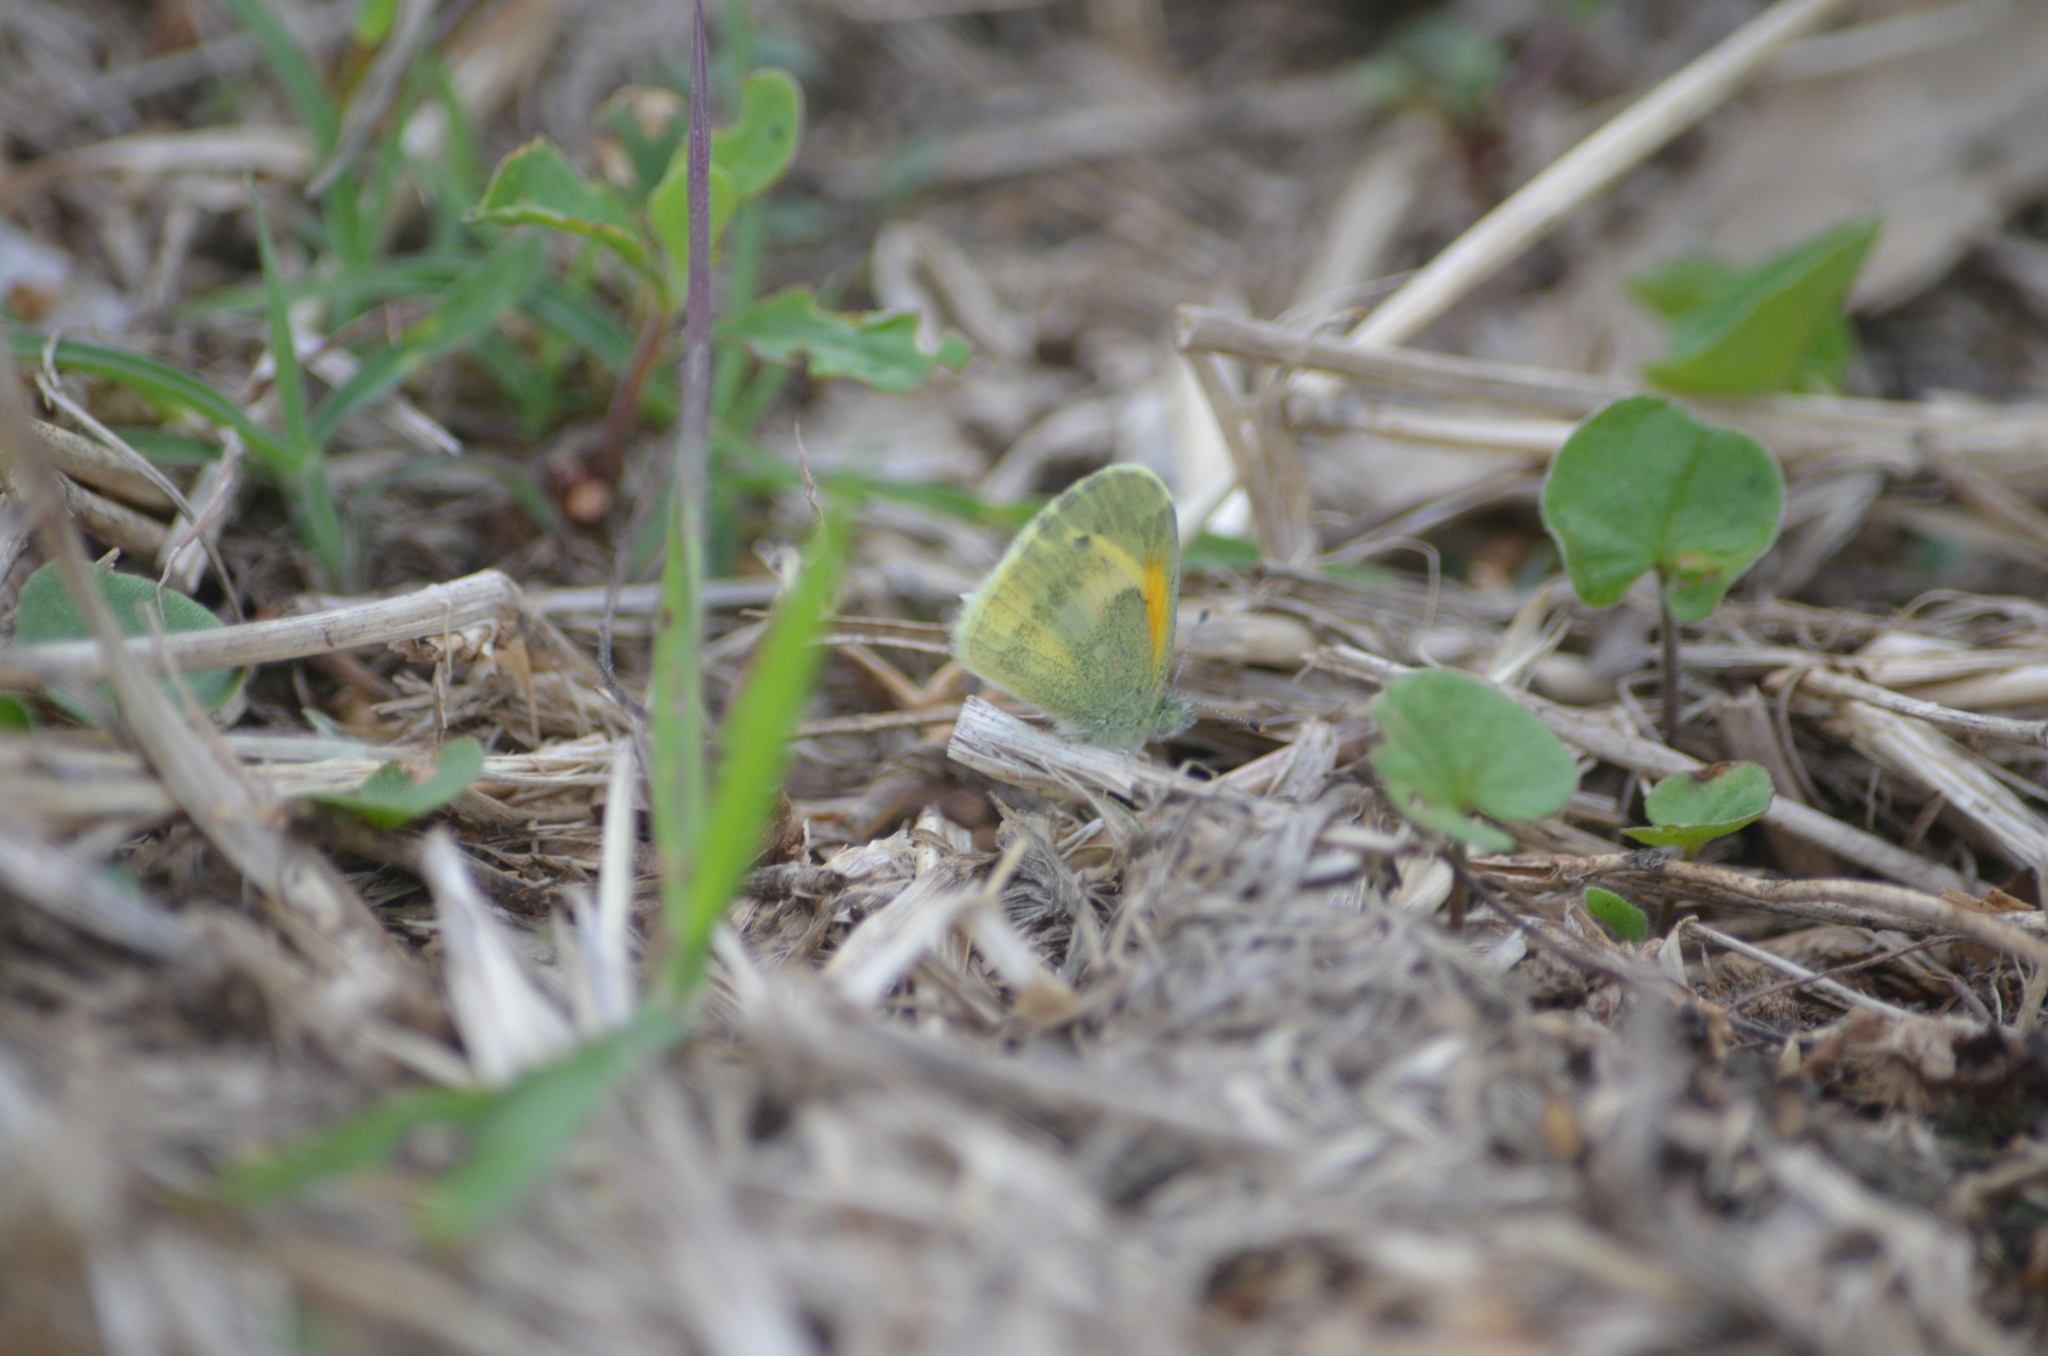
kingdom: Animalia
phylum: Arthropoda
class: Insecta
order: Lepidoptera
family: Pieridae
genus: Nathalis
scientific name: Nathalis iole
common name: Dainty sulphur
